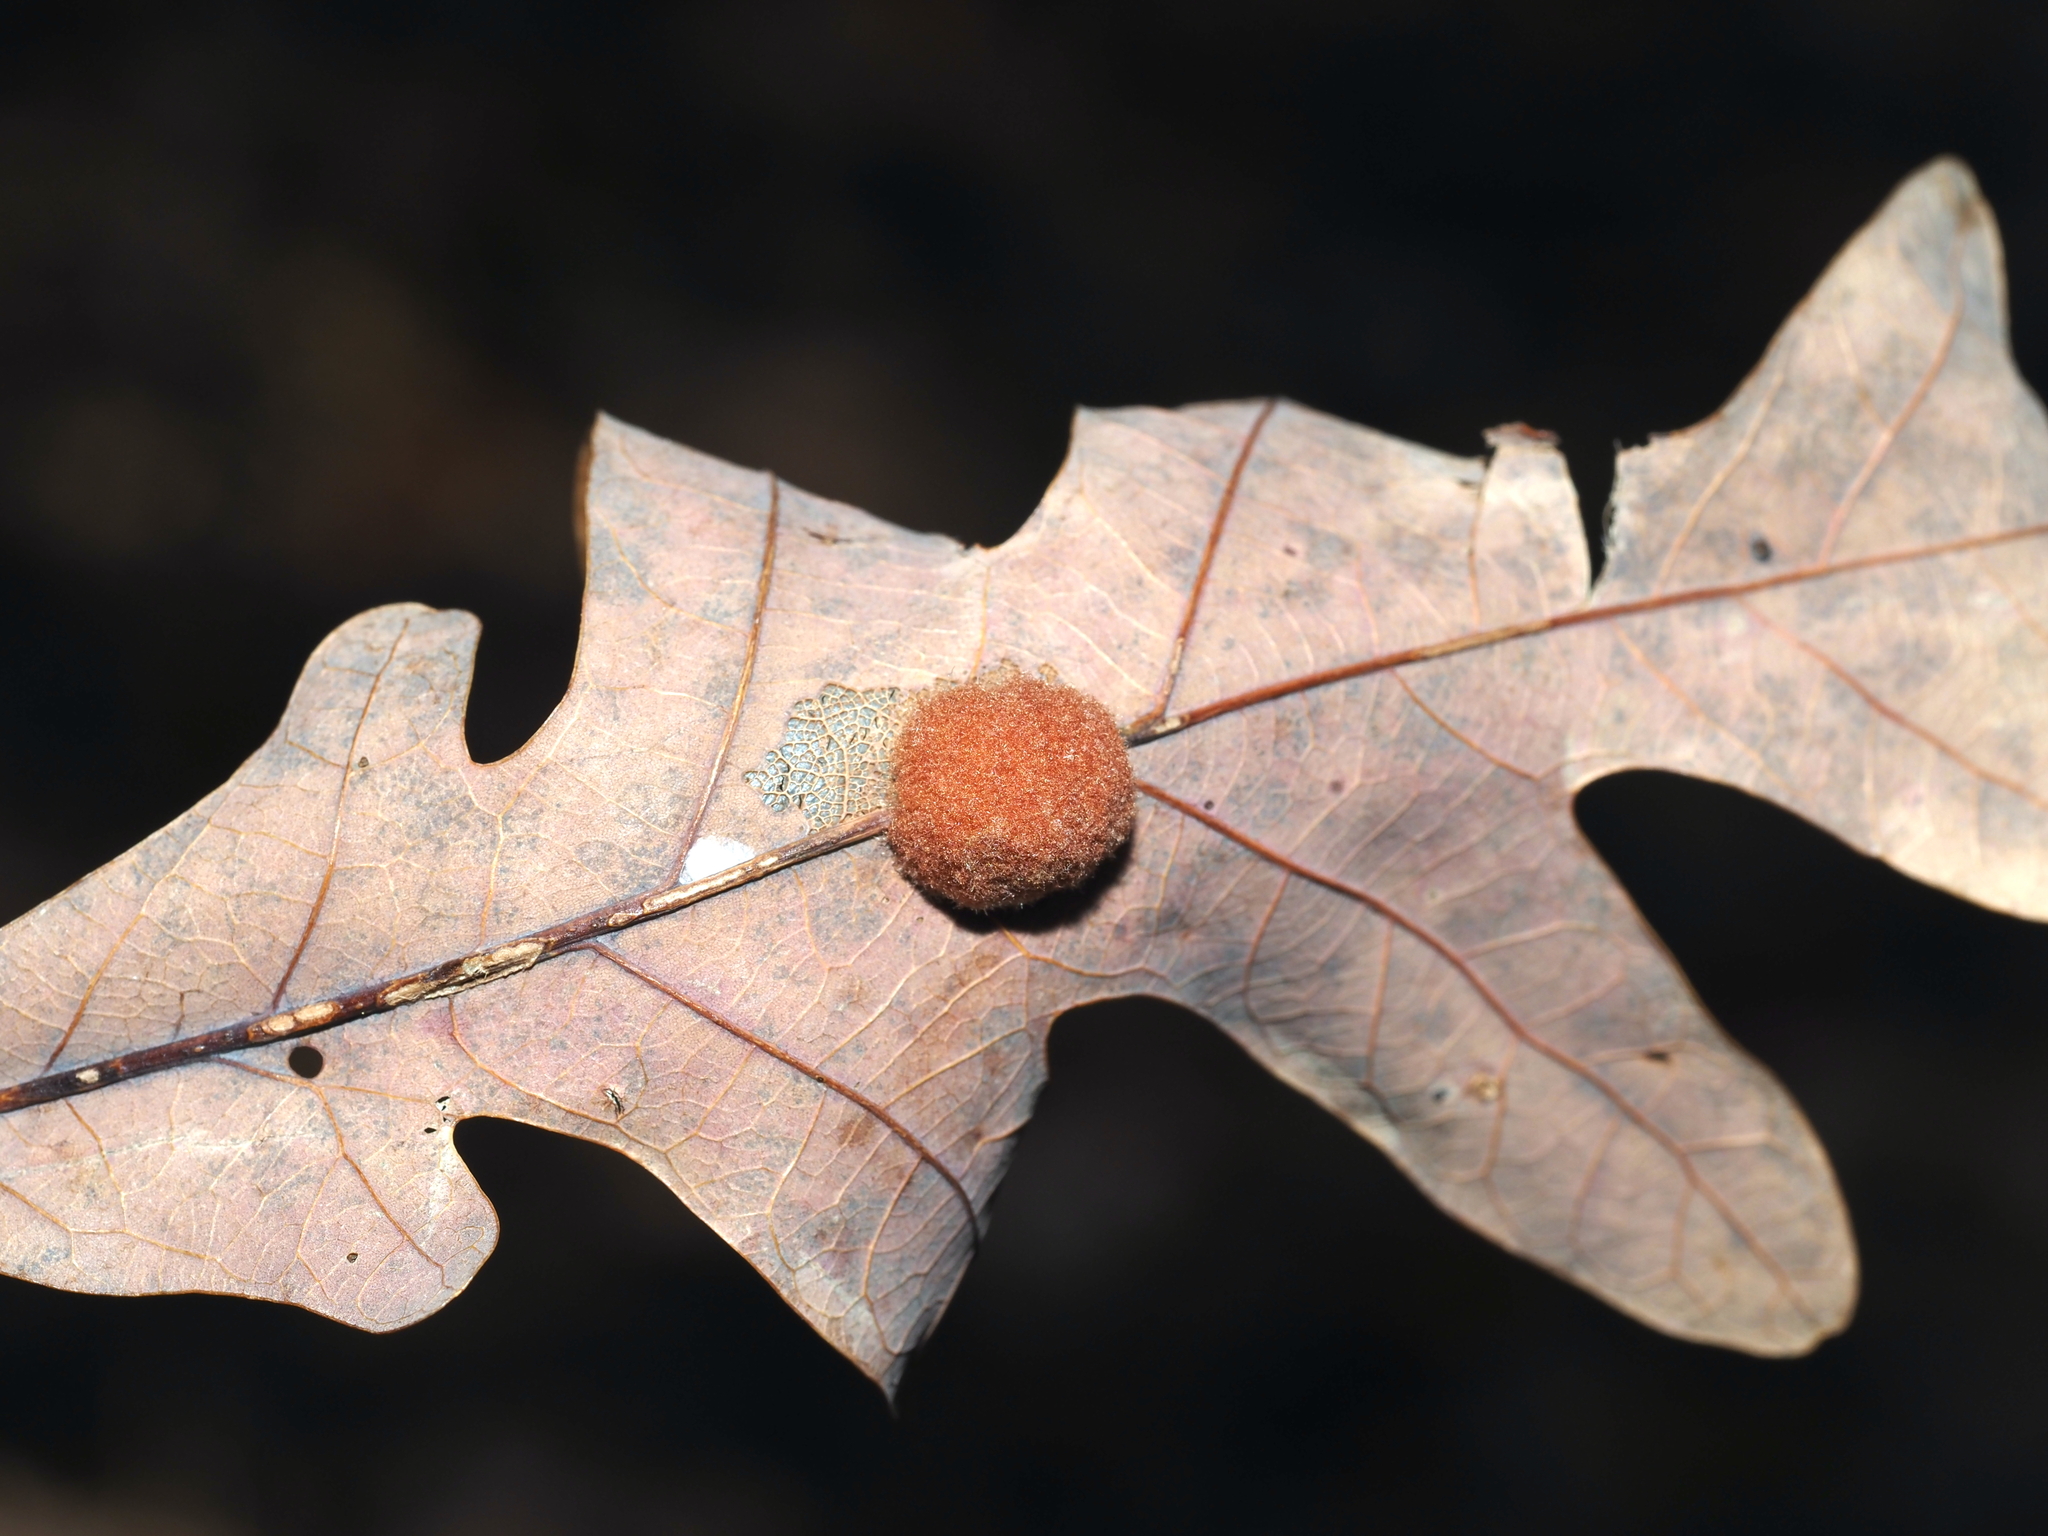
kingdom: Animalia
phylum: Arthropoda
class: Insecta
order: Hymenoptera
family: Cynipidae
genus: Andricus
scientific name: Andricus quercusflocci
